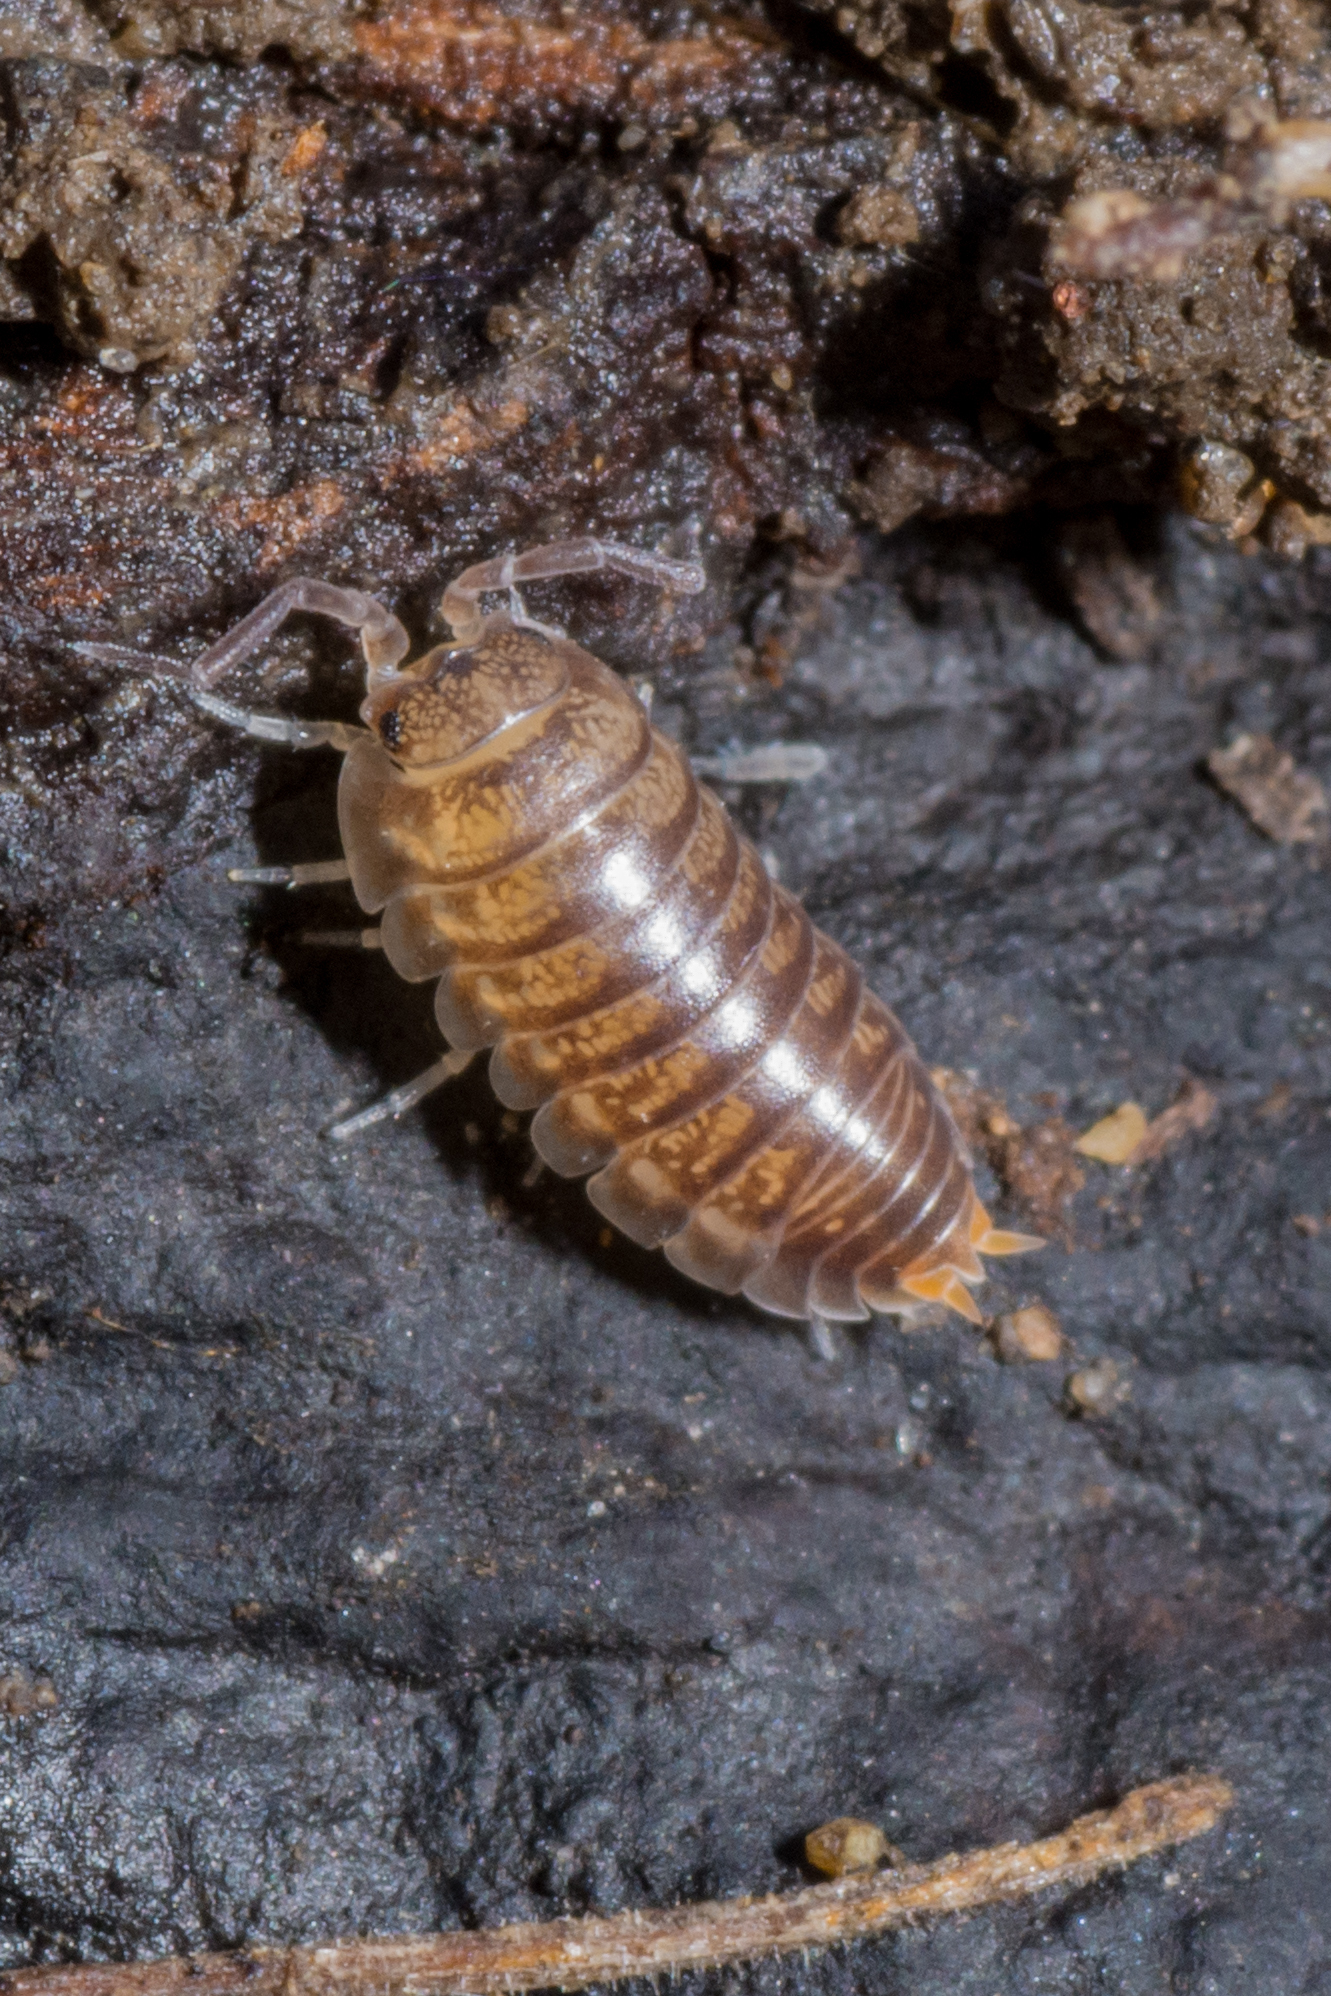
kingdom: Animalia
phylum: Arthropoda
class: Malacostraca
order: Isopoda
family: Cylisticidae
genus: Cylisticus
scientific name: Cylisticus convexus
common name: Curly woodlouse
